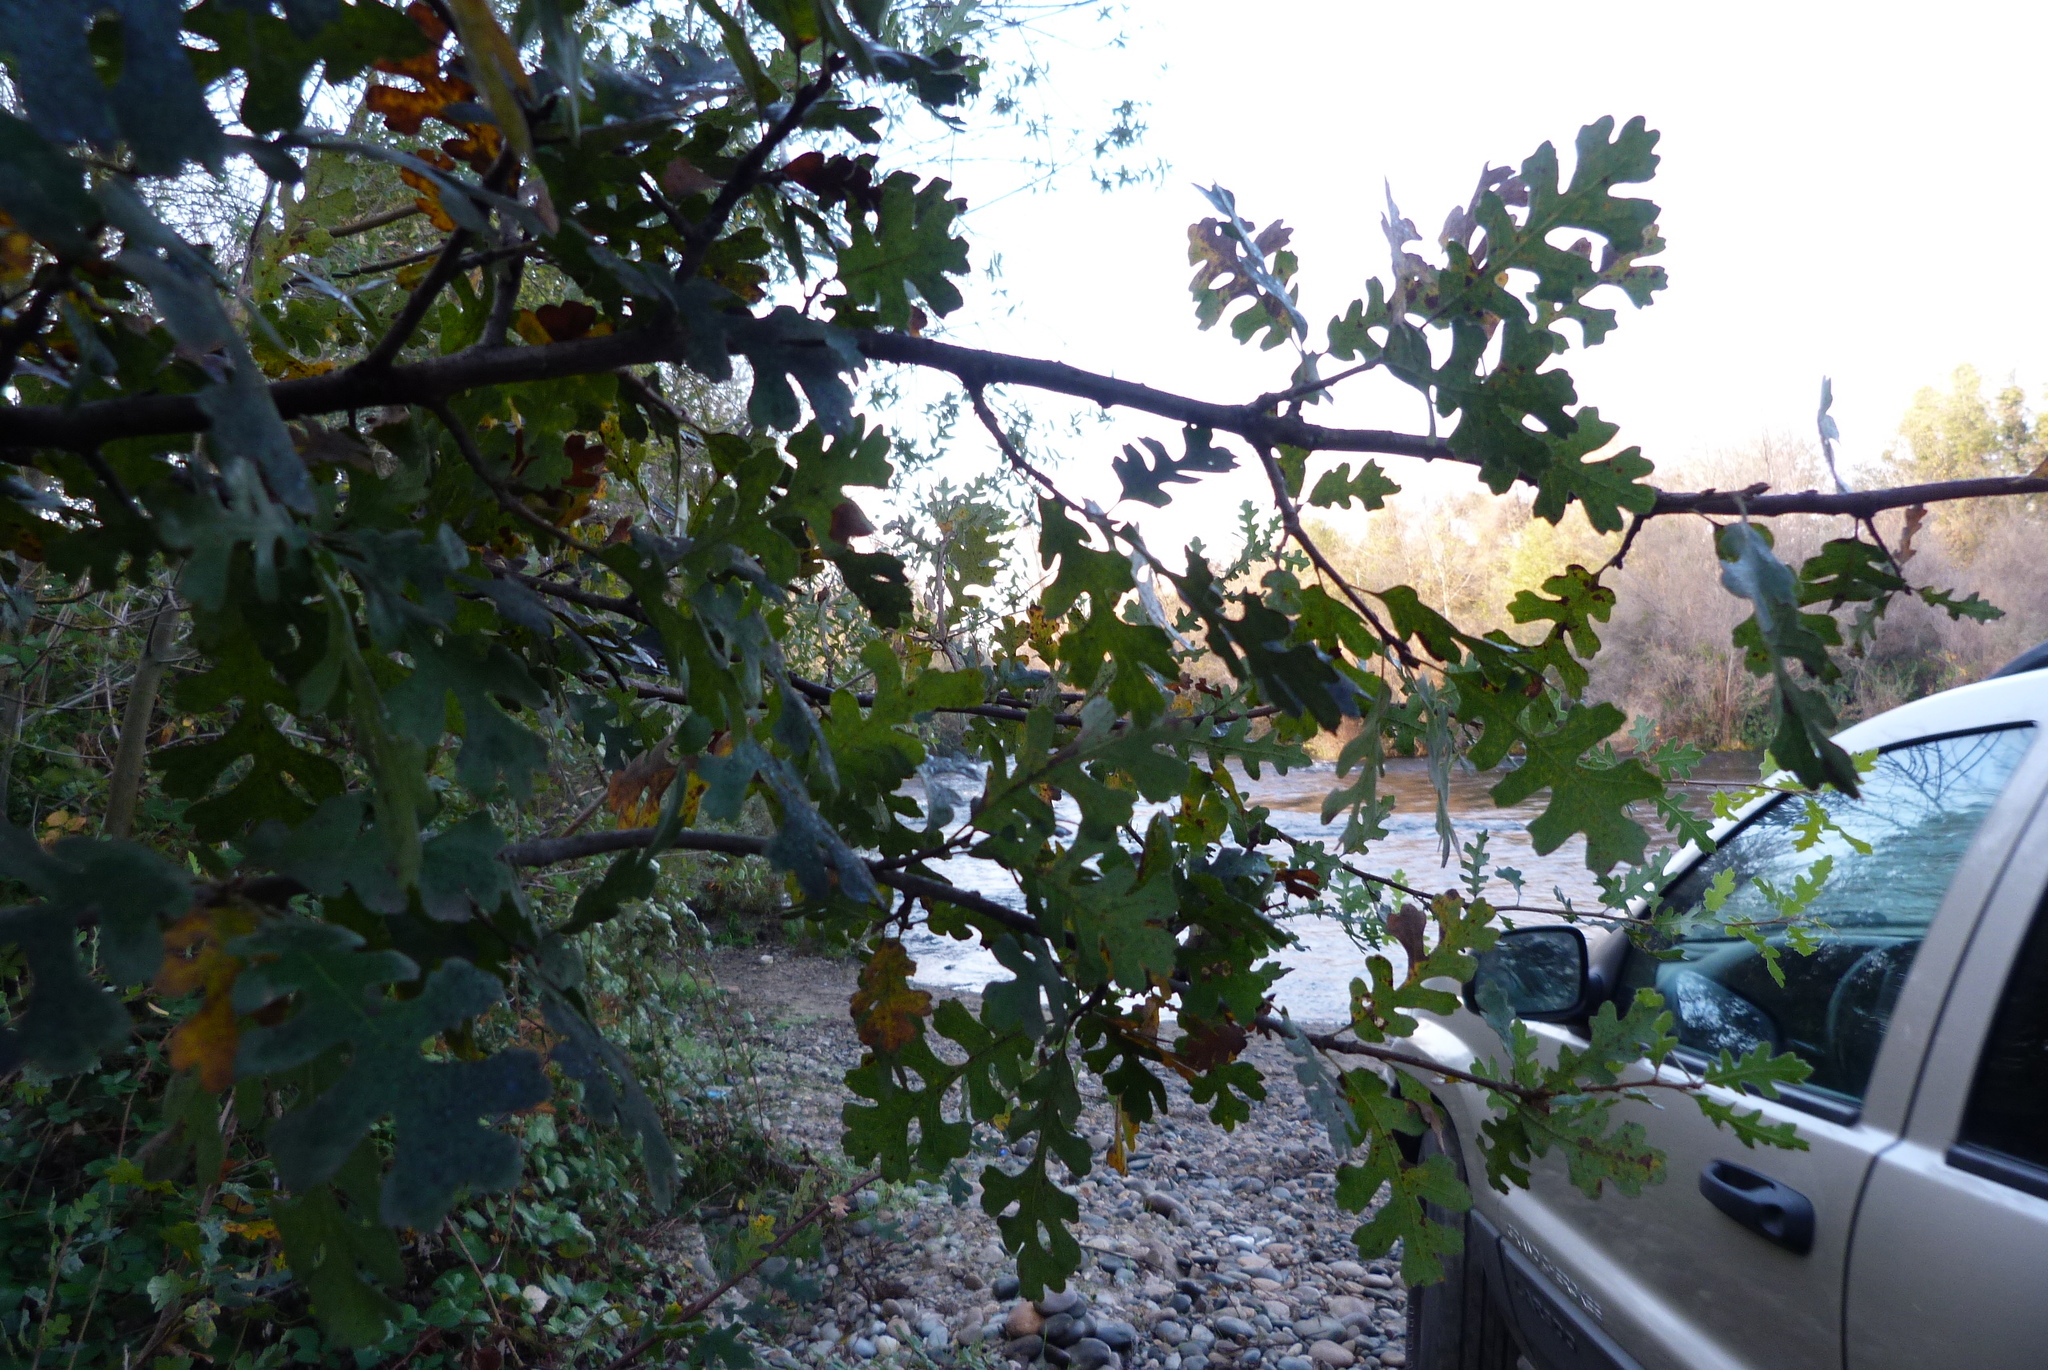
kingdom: Plantae
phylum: Tracheophyta
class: Magnoliopsida
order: Fagales
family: Fagaceae
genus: Quercus
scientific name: Quercus lobata
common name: Valley oak
